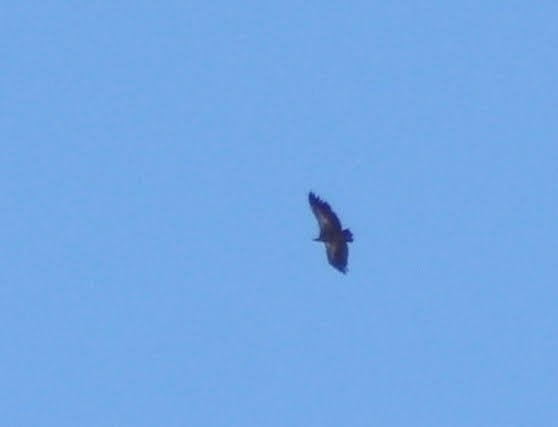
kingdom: Animalia
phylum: Chordata
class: Aves
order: Accipitriformes
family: Accipitridae
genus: Gyps
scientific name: Gyps fulvus
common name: Griffon vulture
